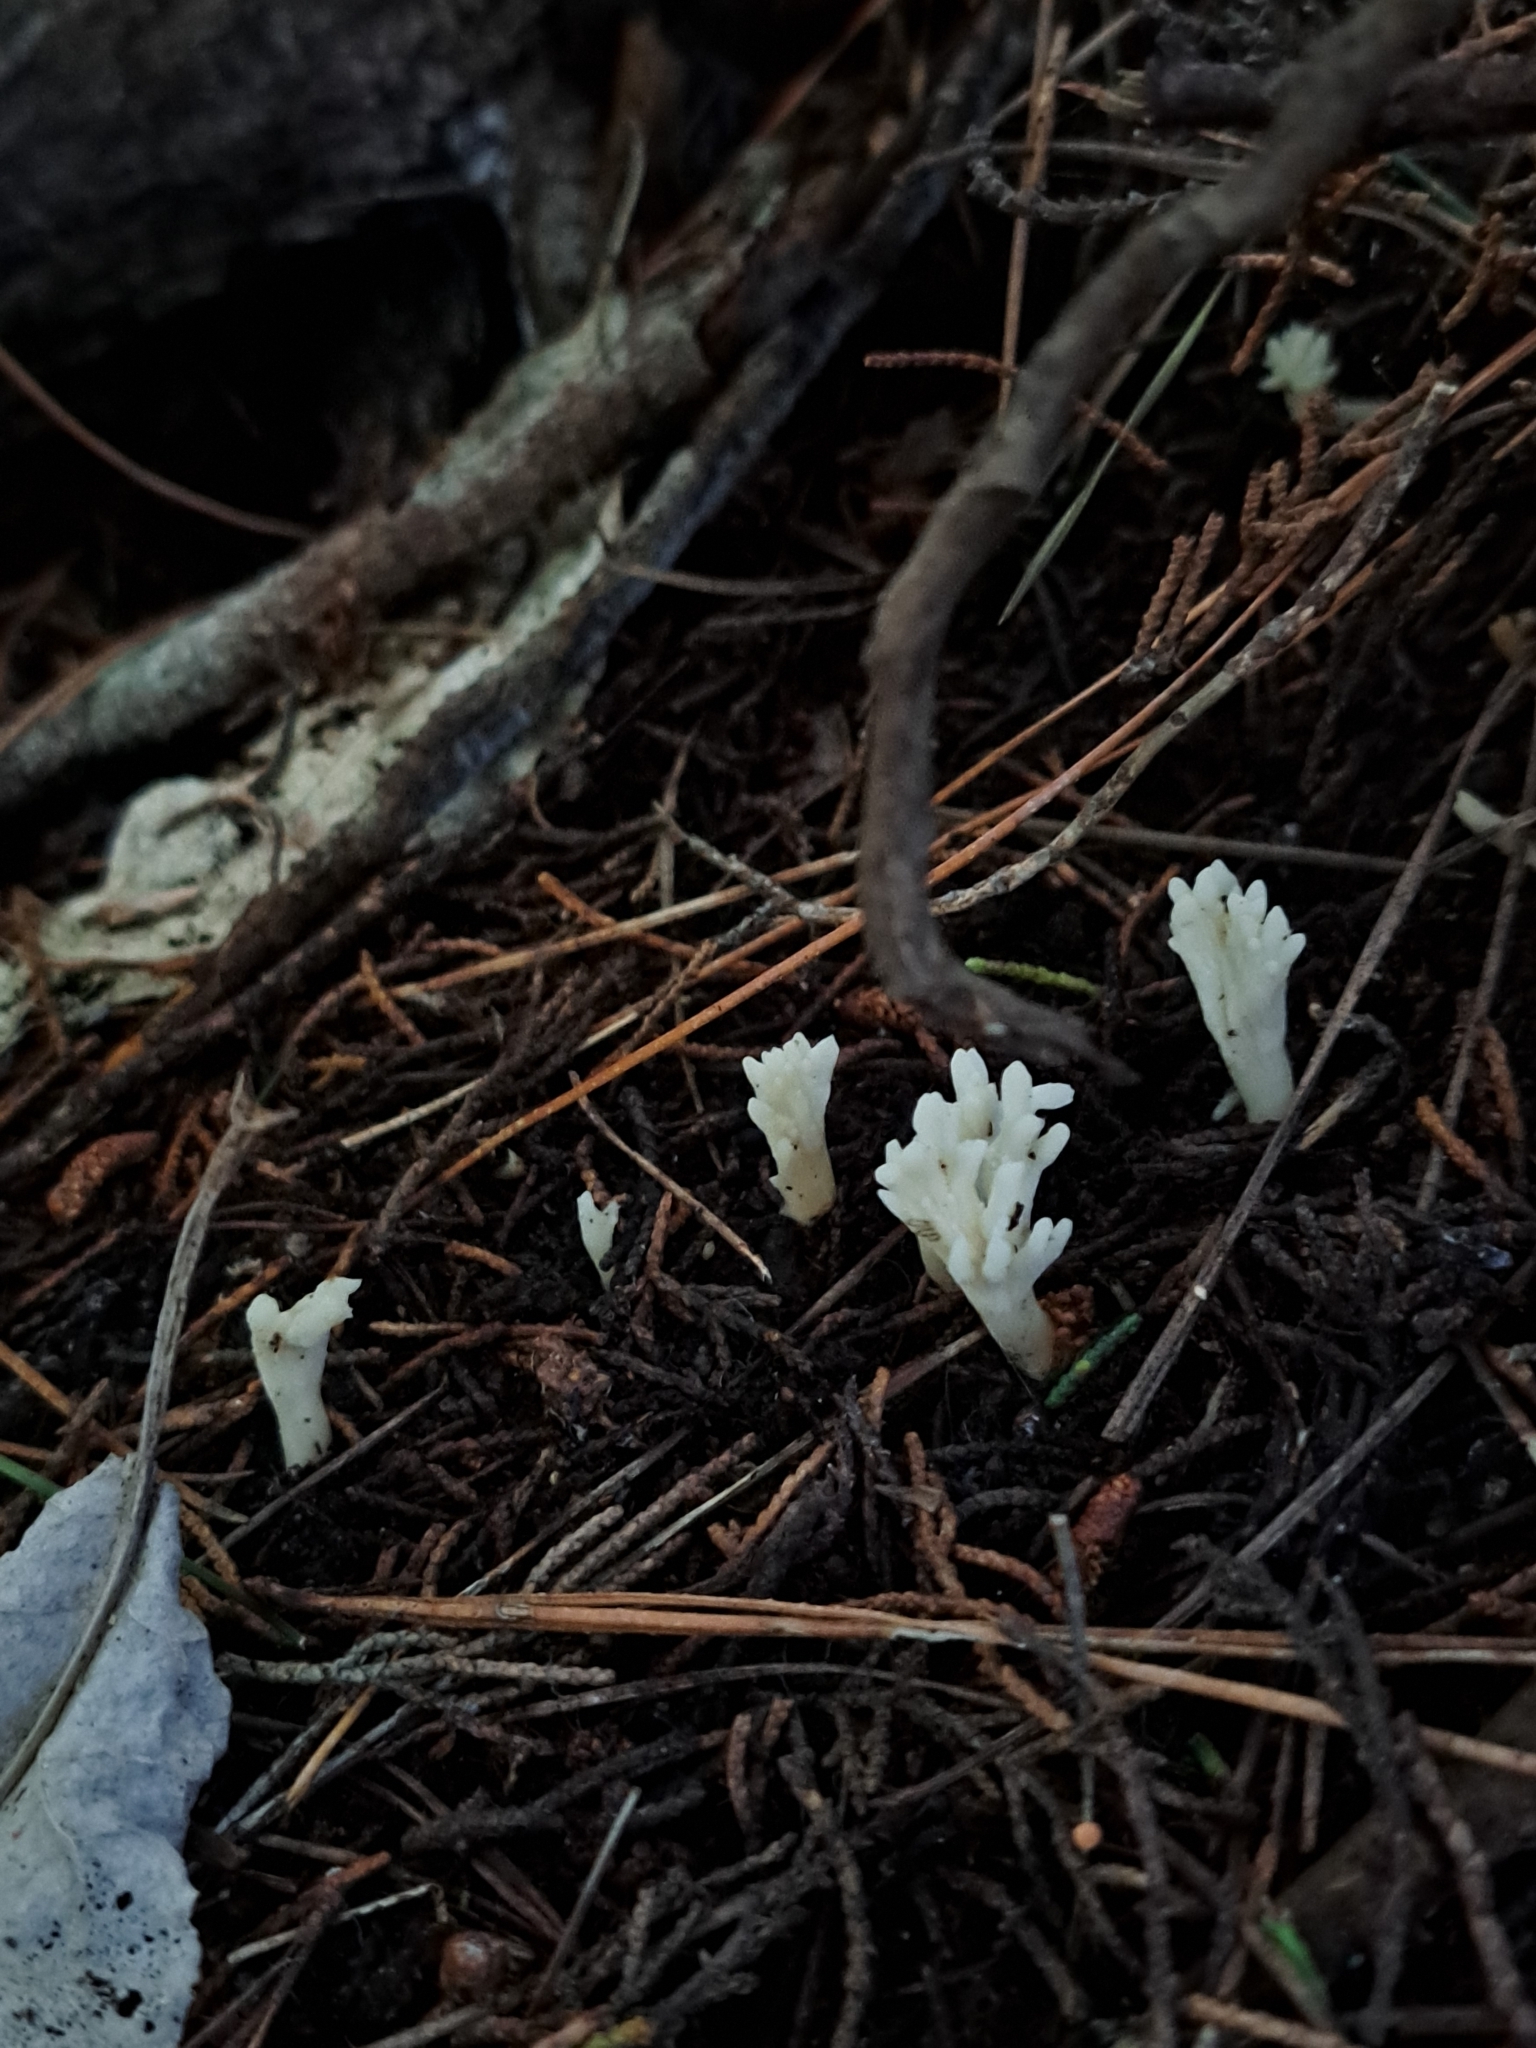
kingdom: Fungi
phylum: Basidiomycota
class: Agaricomycetes
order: Cantharellales
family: Hydnaceae
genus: Clavulina
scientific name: Clavulina rugosa
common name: Wrinkled club
